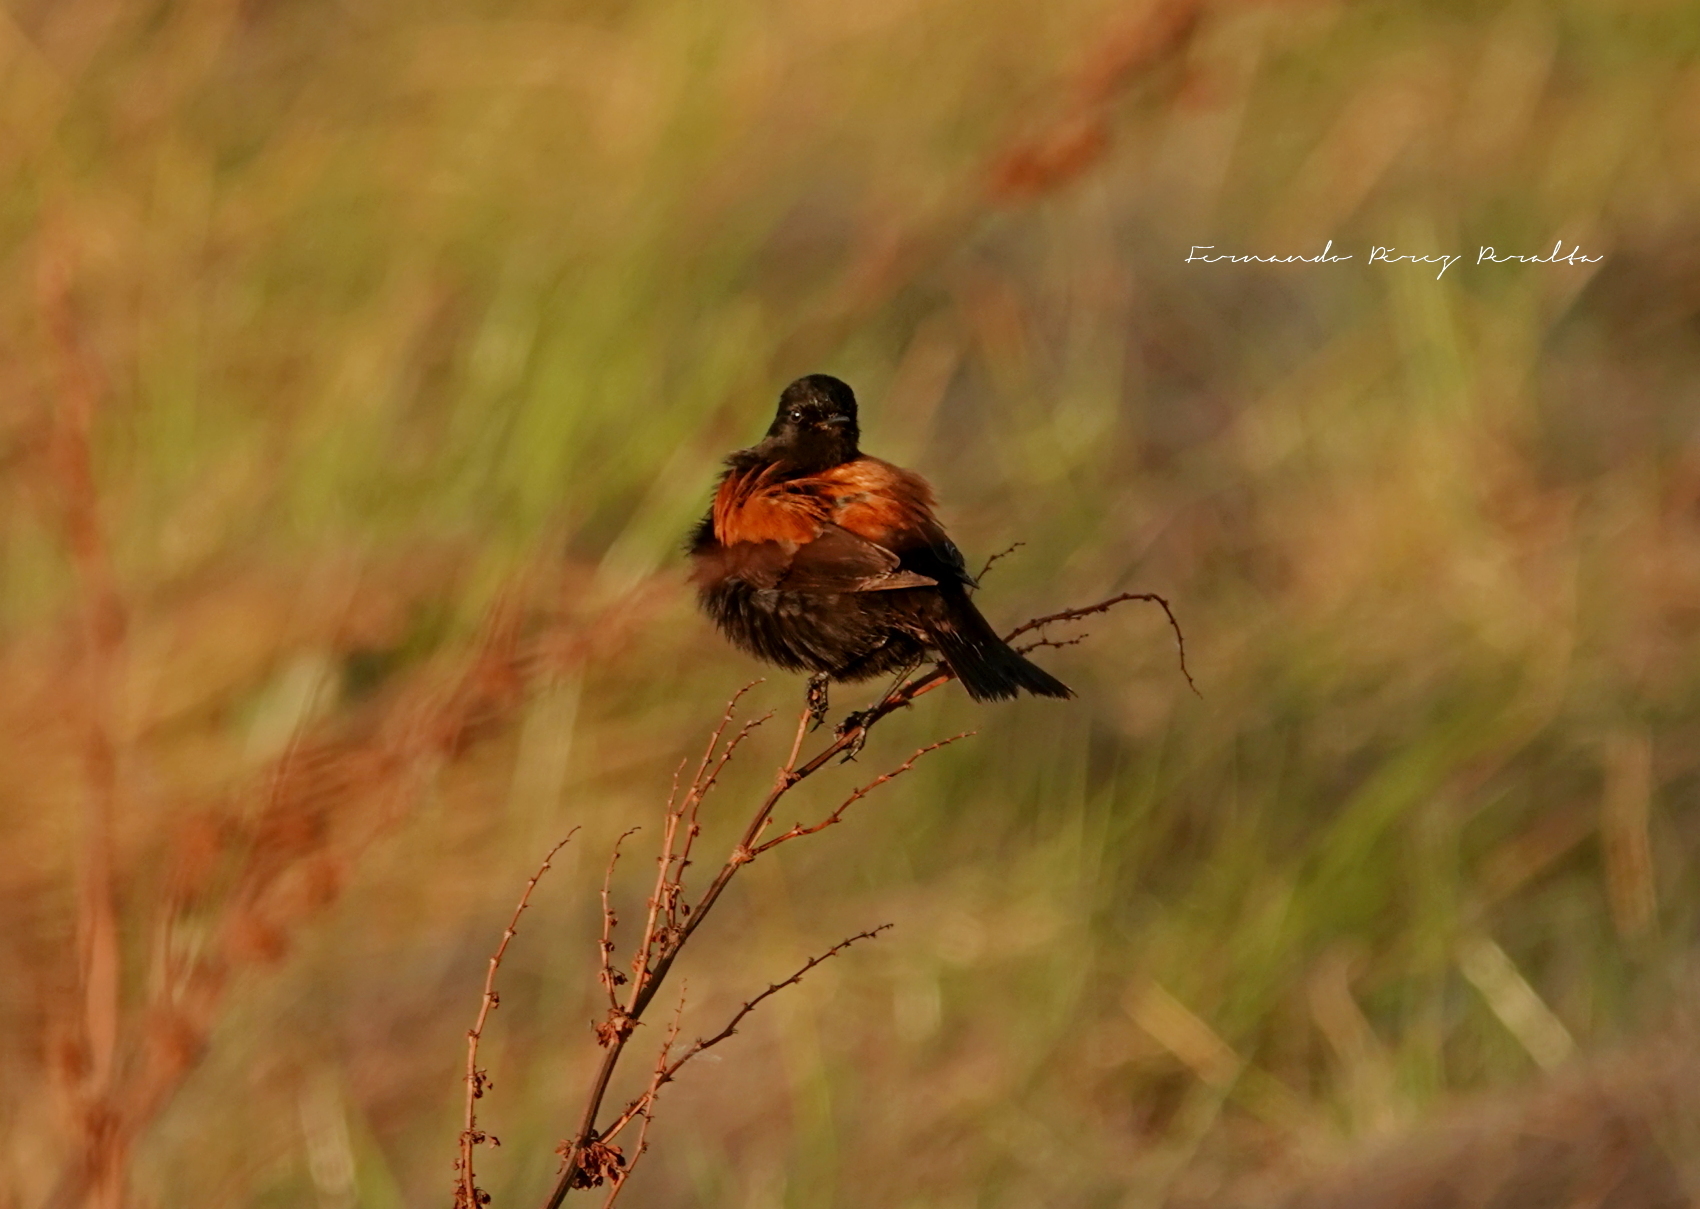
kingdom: Animalia
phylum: Chordata
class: Aves
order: Passeriformes
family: Tyrannidae
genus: Lessonia
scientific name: Lessonia rufa
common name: Austral negrito
